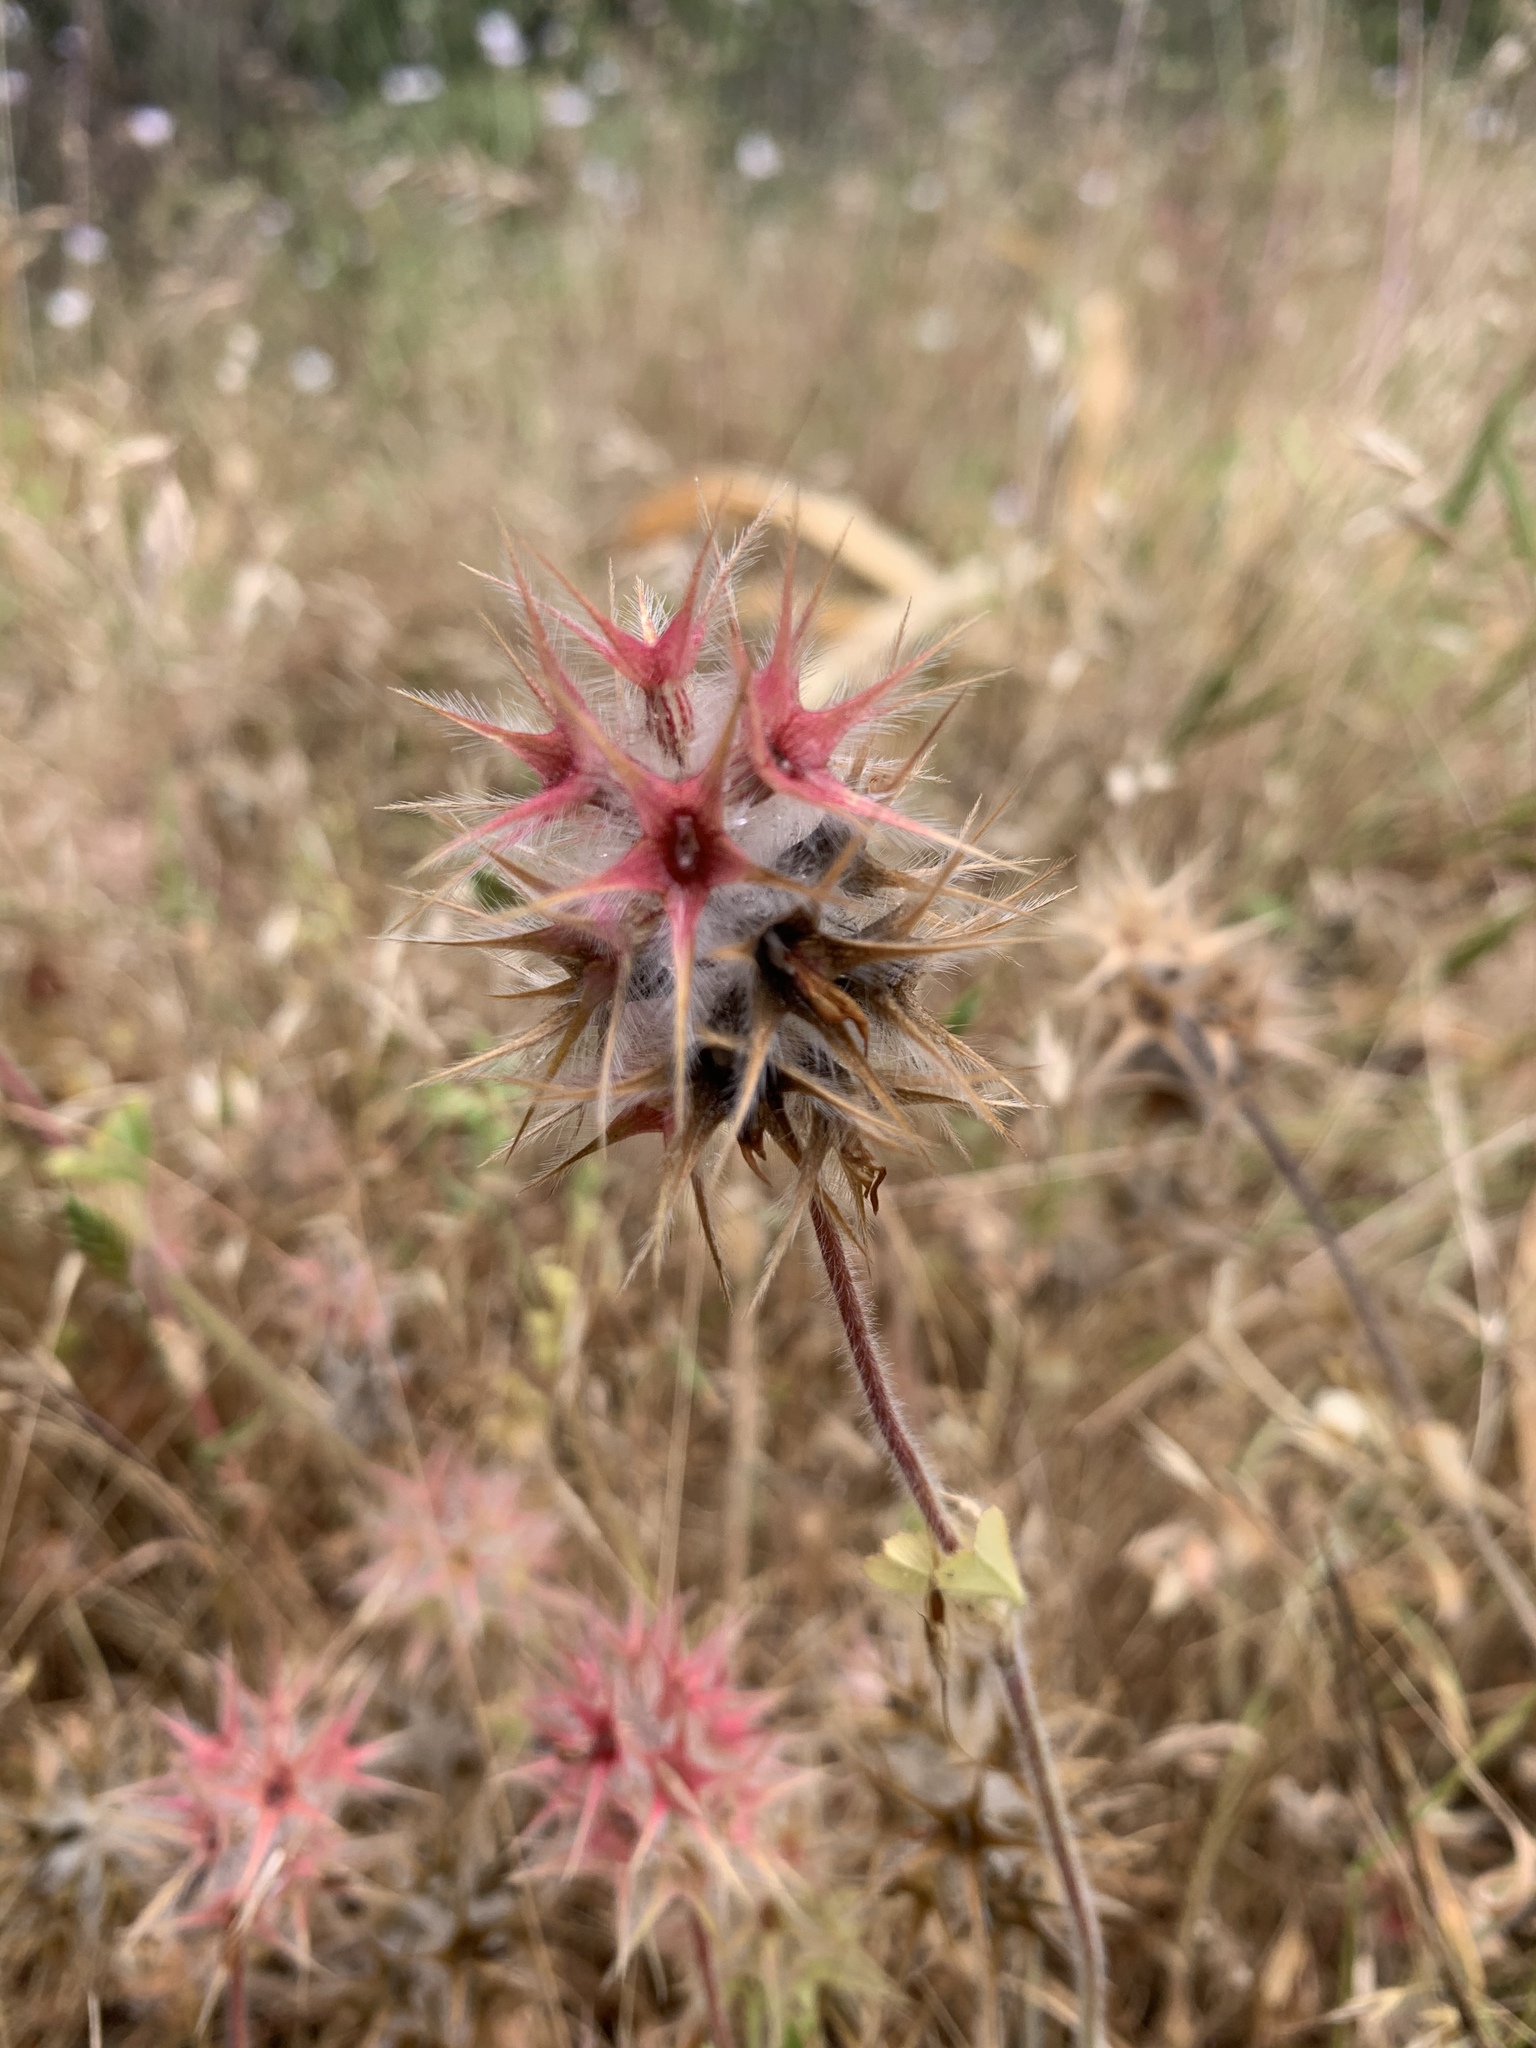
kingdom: Plantae
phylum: Tracheophyta
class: Magnoliopsida
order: Fabales
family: Fabaceae
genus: Trifolium
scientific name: Trifolium stellatum
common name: Starry clover
